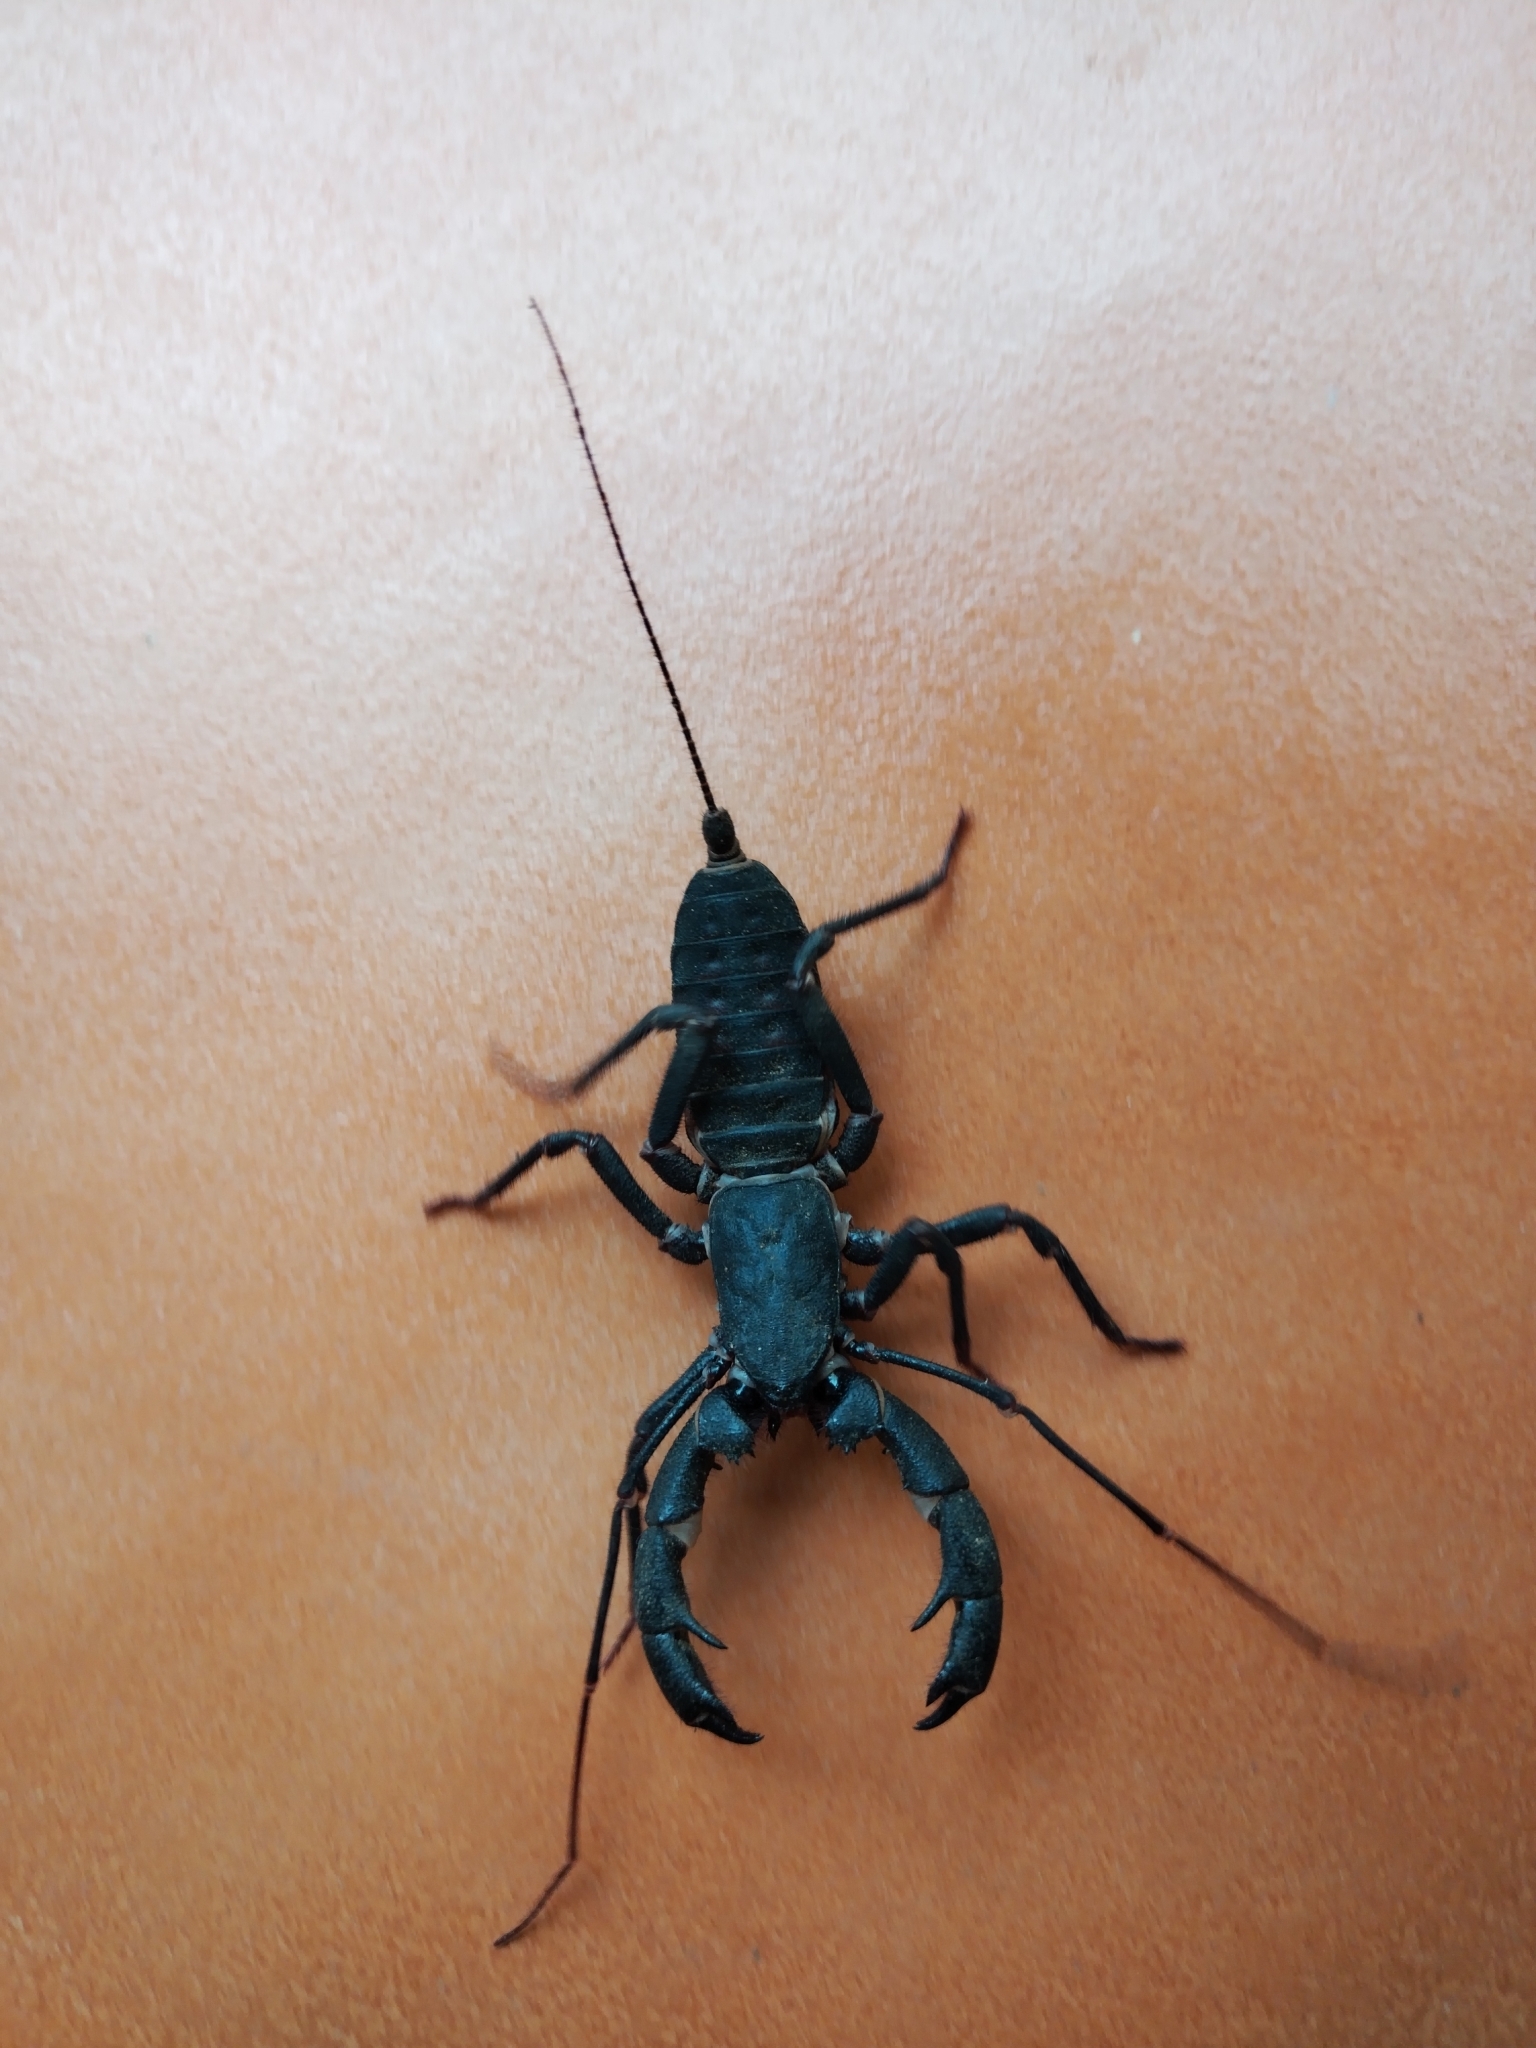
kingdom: Animalia
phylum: Arthropoda
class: Arachnida
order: Uropygi
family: Thelyphonidae
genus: Mastigoproctus
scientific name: Mastigoproctus giganteus
